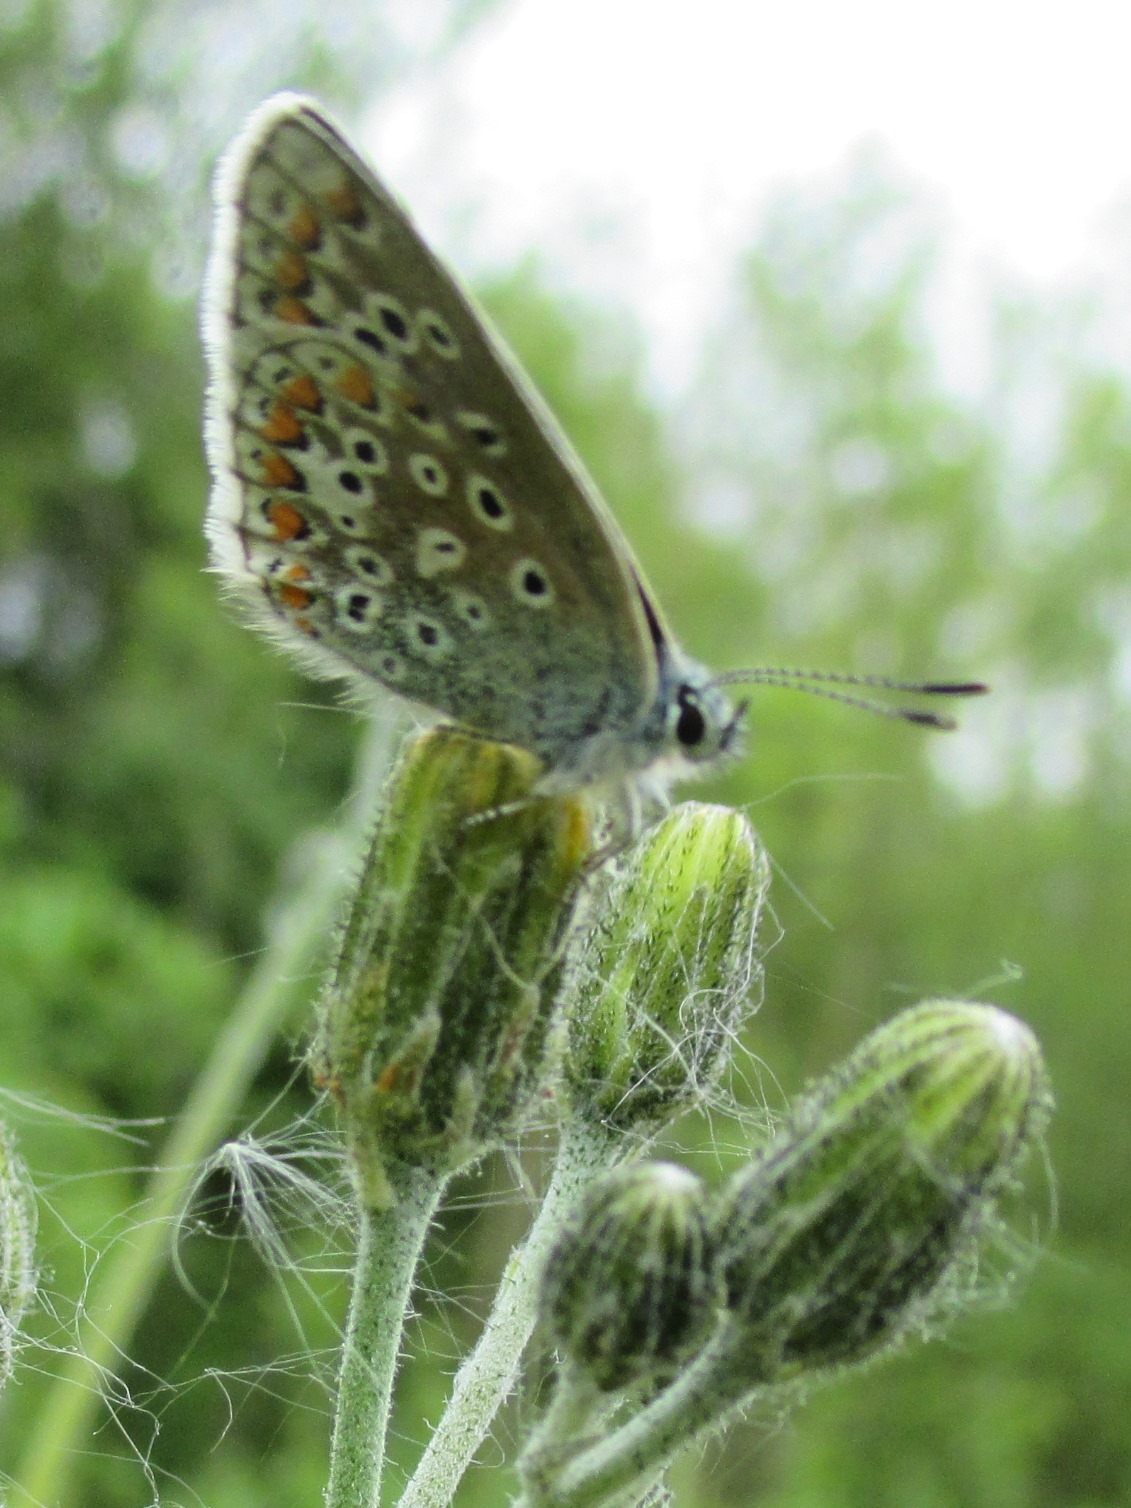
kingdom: Animalia
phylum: Arthropoda
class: Insecta
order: Lepidoptera
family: Lycaenidae
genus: Polyommatus
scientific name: Polyommatus icarus
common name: Common blue
